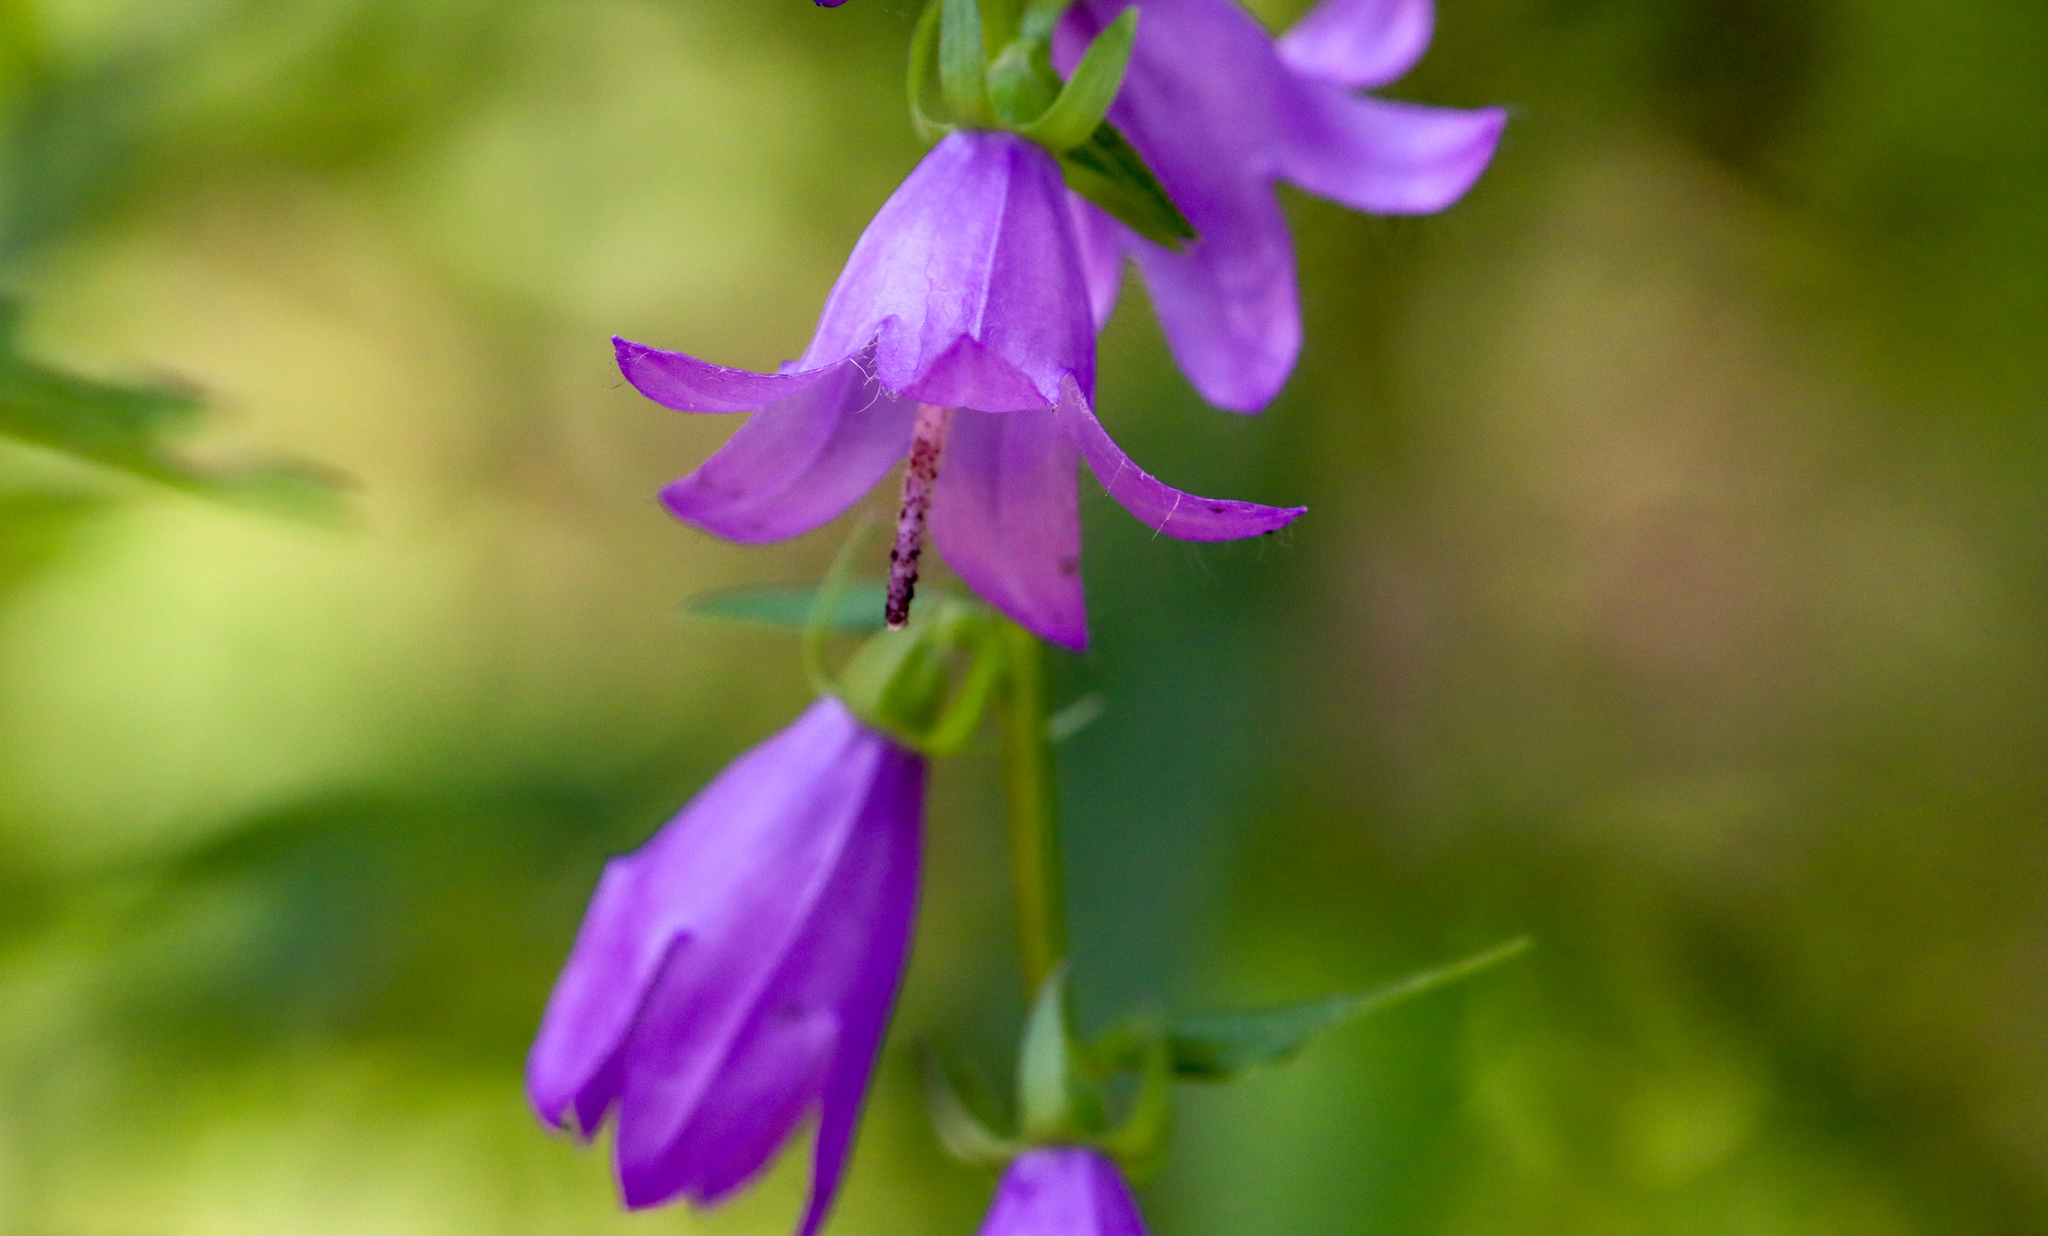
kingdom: Plantae
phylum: Tracheophyta
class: Magnoliopsida
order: Asterales
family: Campanulaceae
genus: Campanula
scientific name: Campanula rapunculoides
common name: Creeping bellflower
